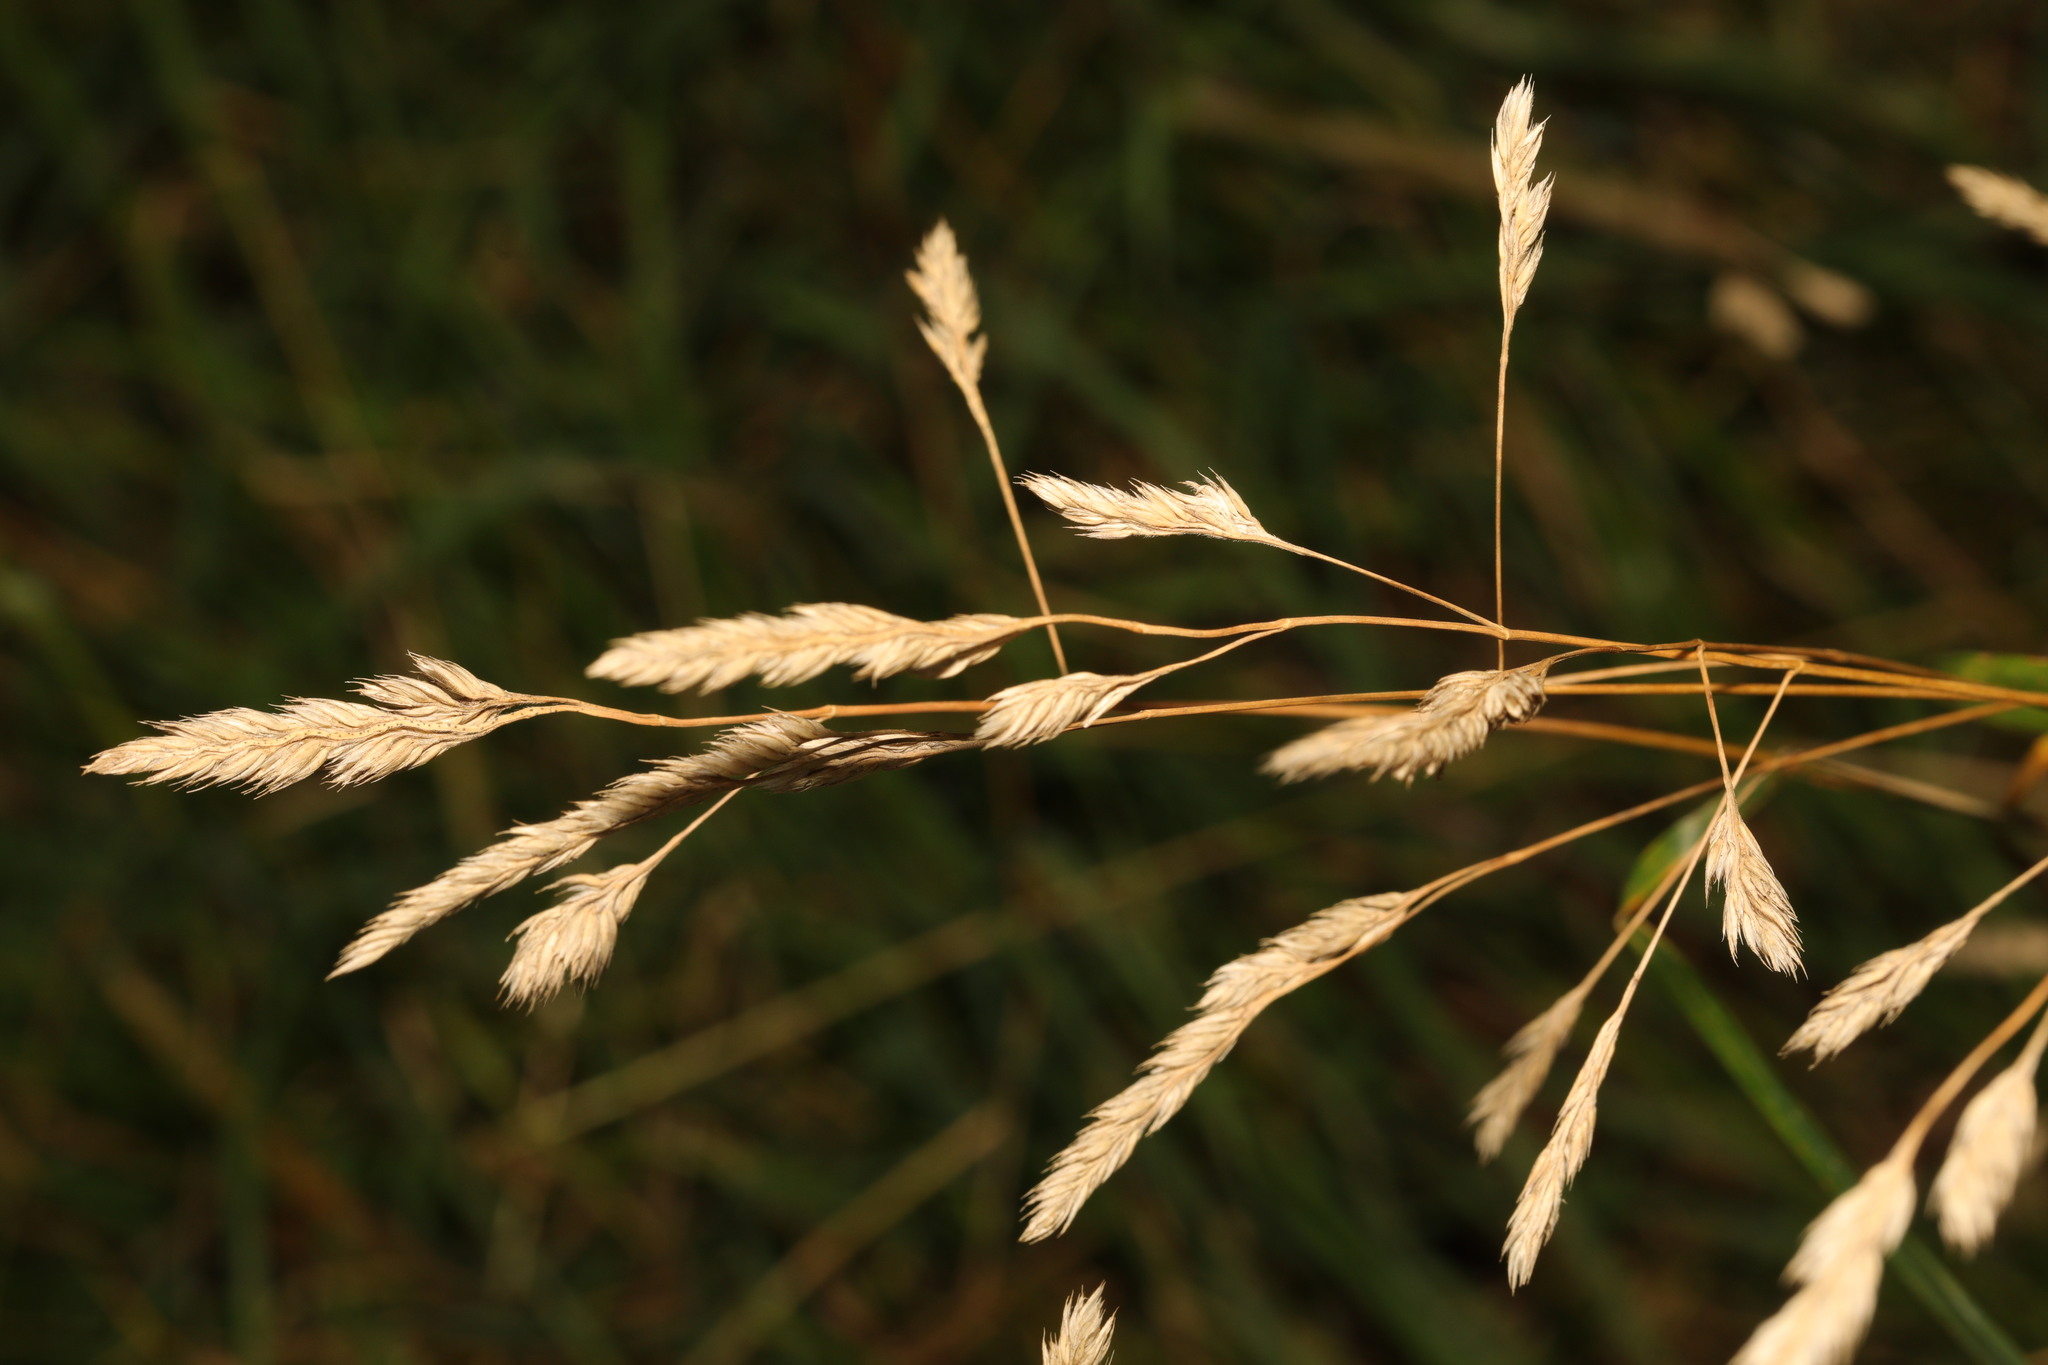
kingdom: Plantae
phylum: Tracheophyta
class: Liliopsida
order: Poales
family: Poaceae
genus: Dactylis
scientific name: Dactylis glomerata
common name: Orchardgrass
